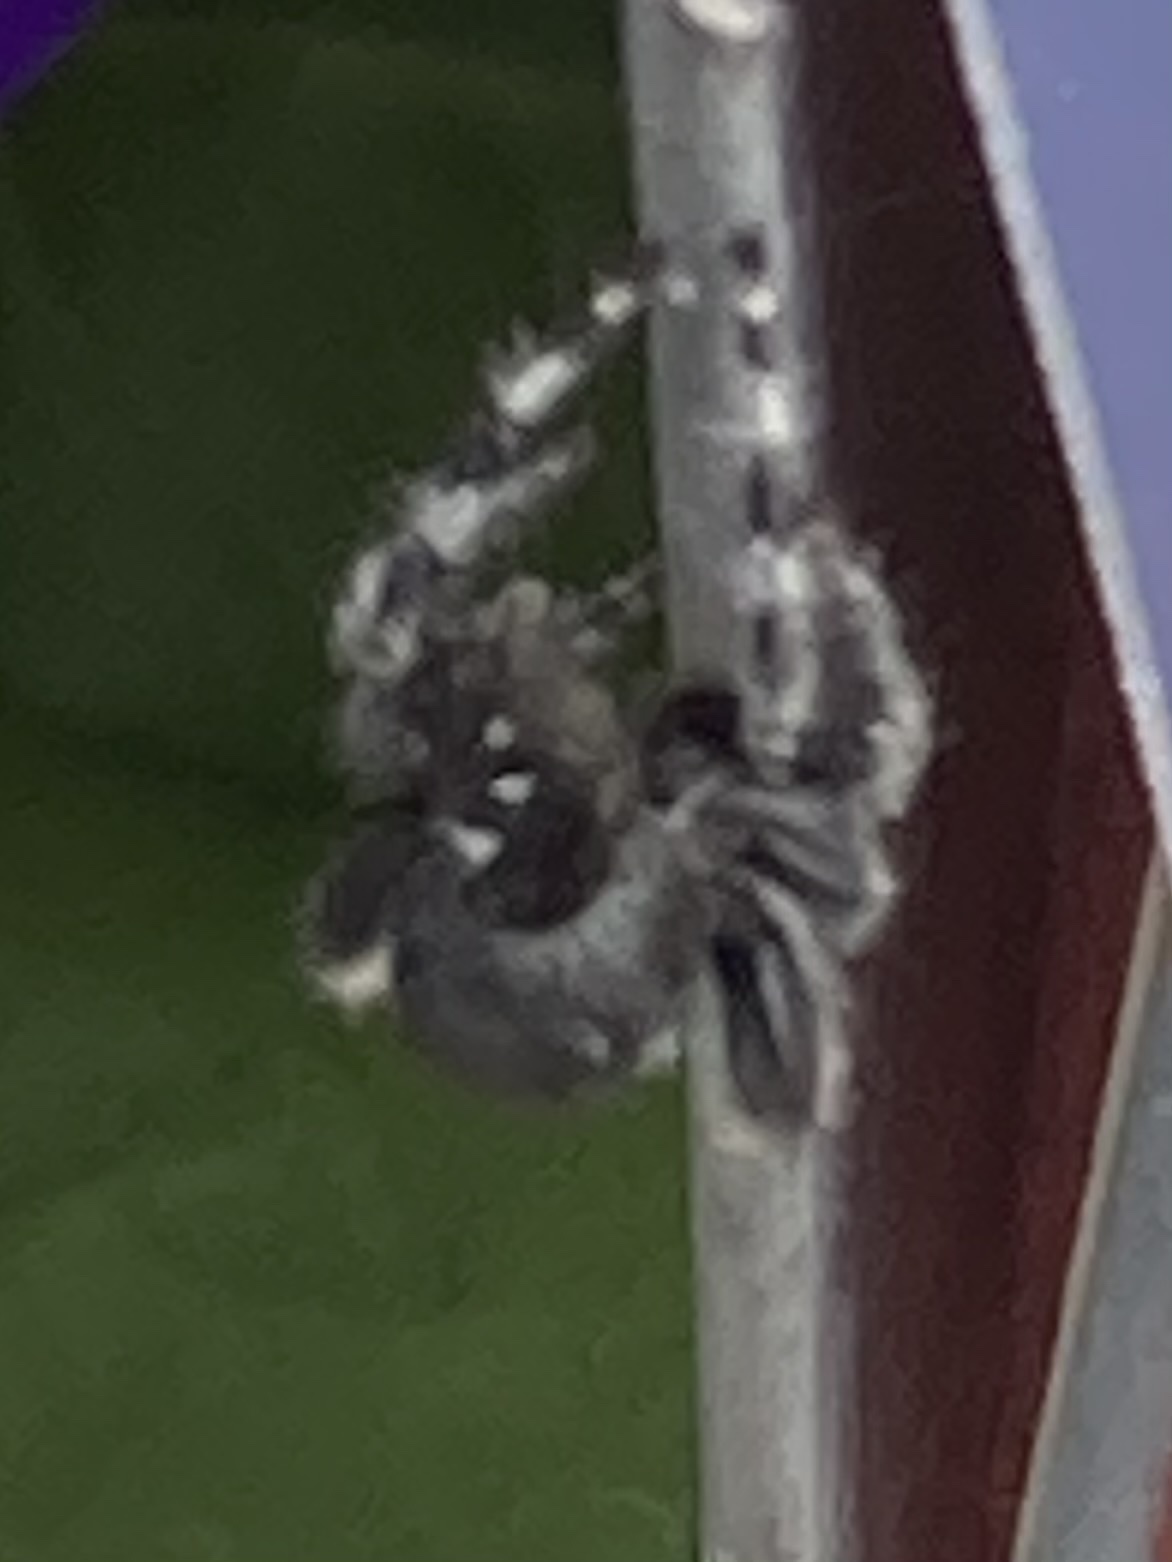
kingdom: Animalia
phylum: Arthropoda
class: Arachnida
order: Araneae
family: Salticidae
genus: Phidippus
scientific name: Phidippus audax
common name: Bold jumper
